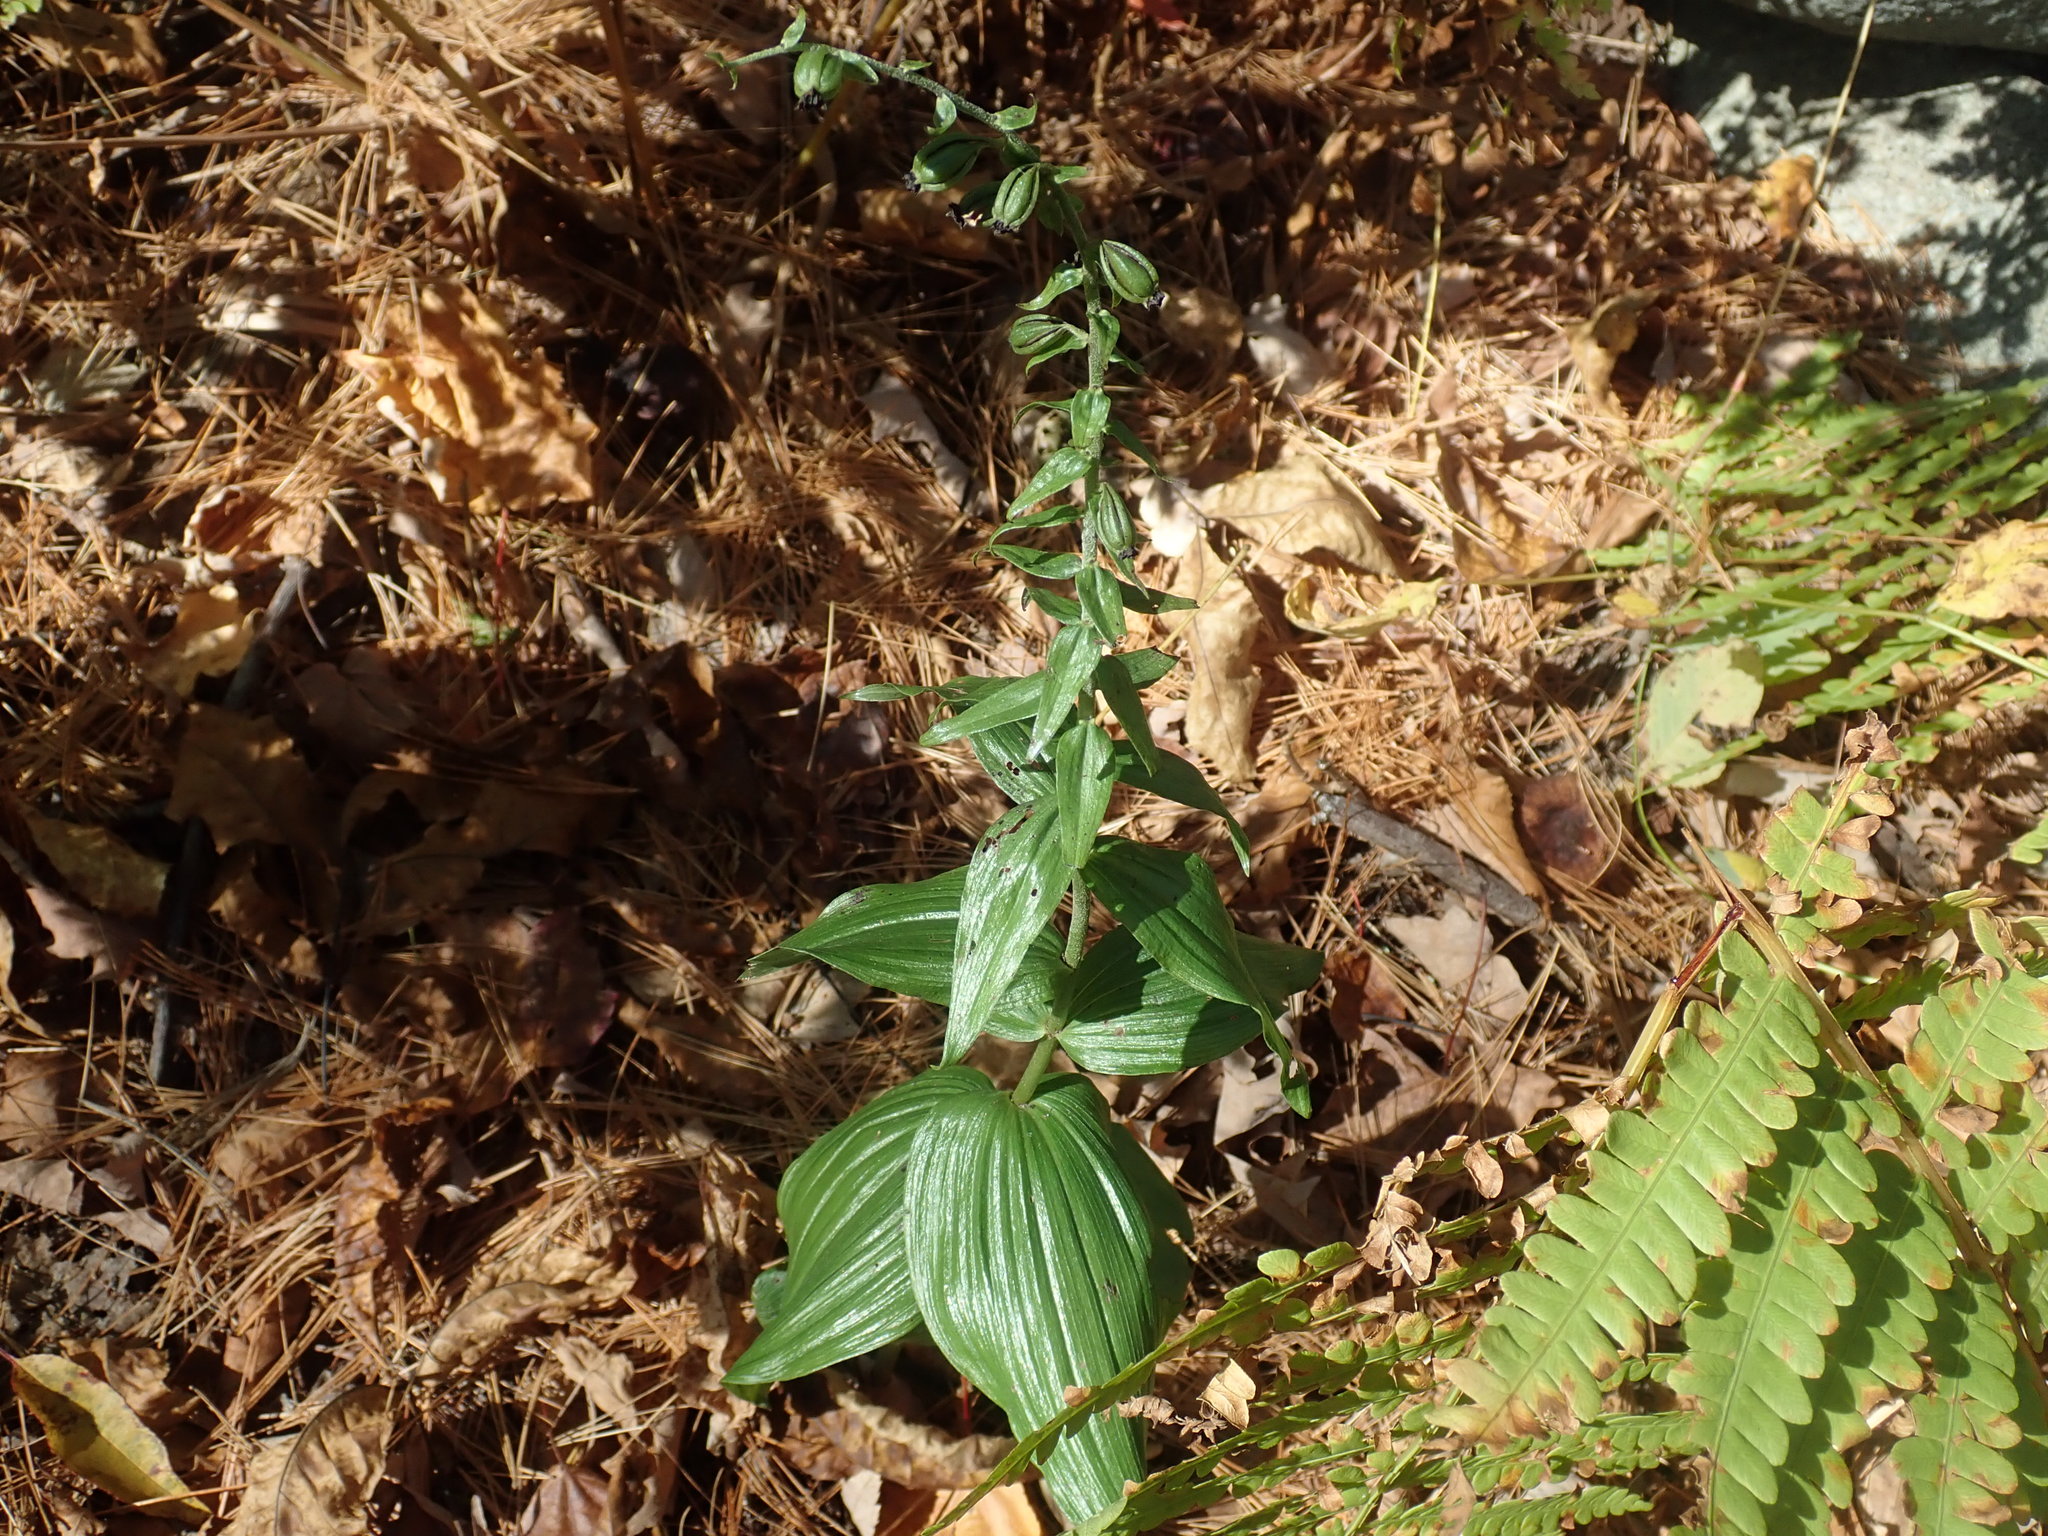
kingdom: Plantae
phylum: Tracheophyta
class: Liliopsida
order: Asparagales
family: Orchidaceae
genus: Epipactis
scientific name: Epipactis helleborine
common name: Broad-leaved helleborine
